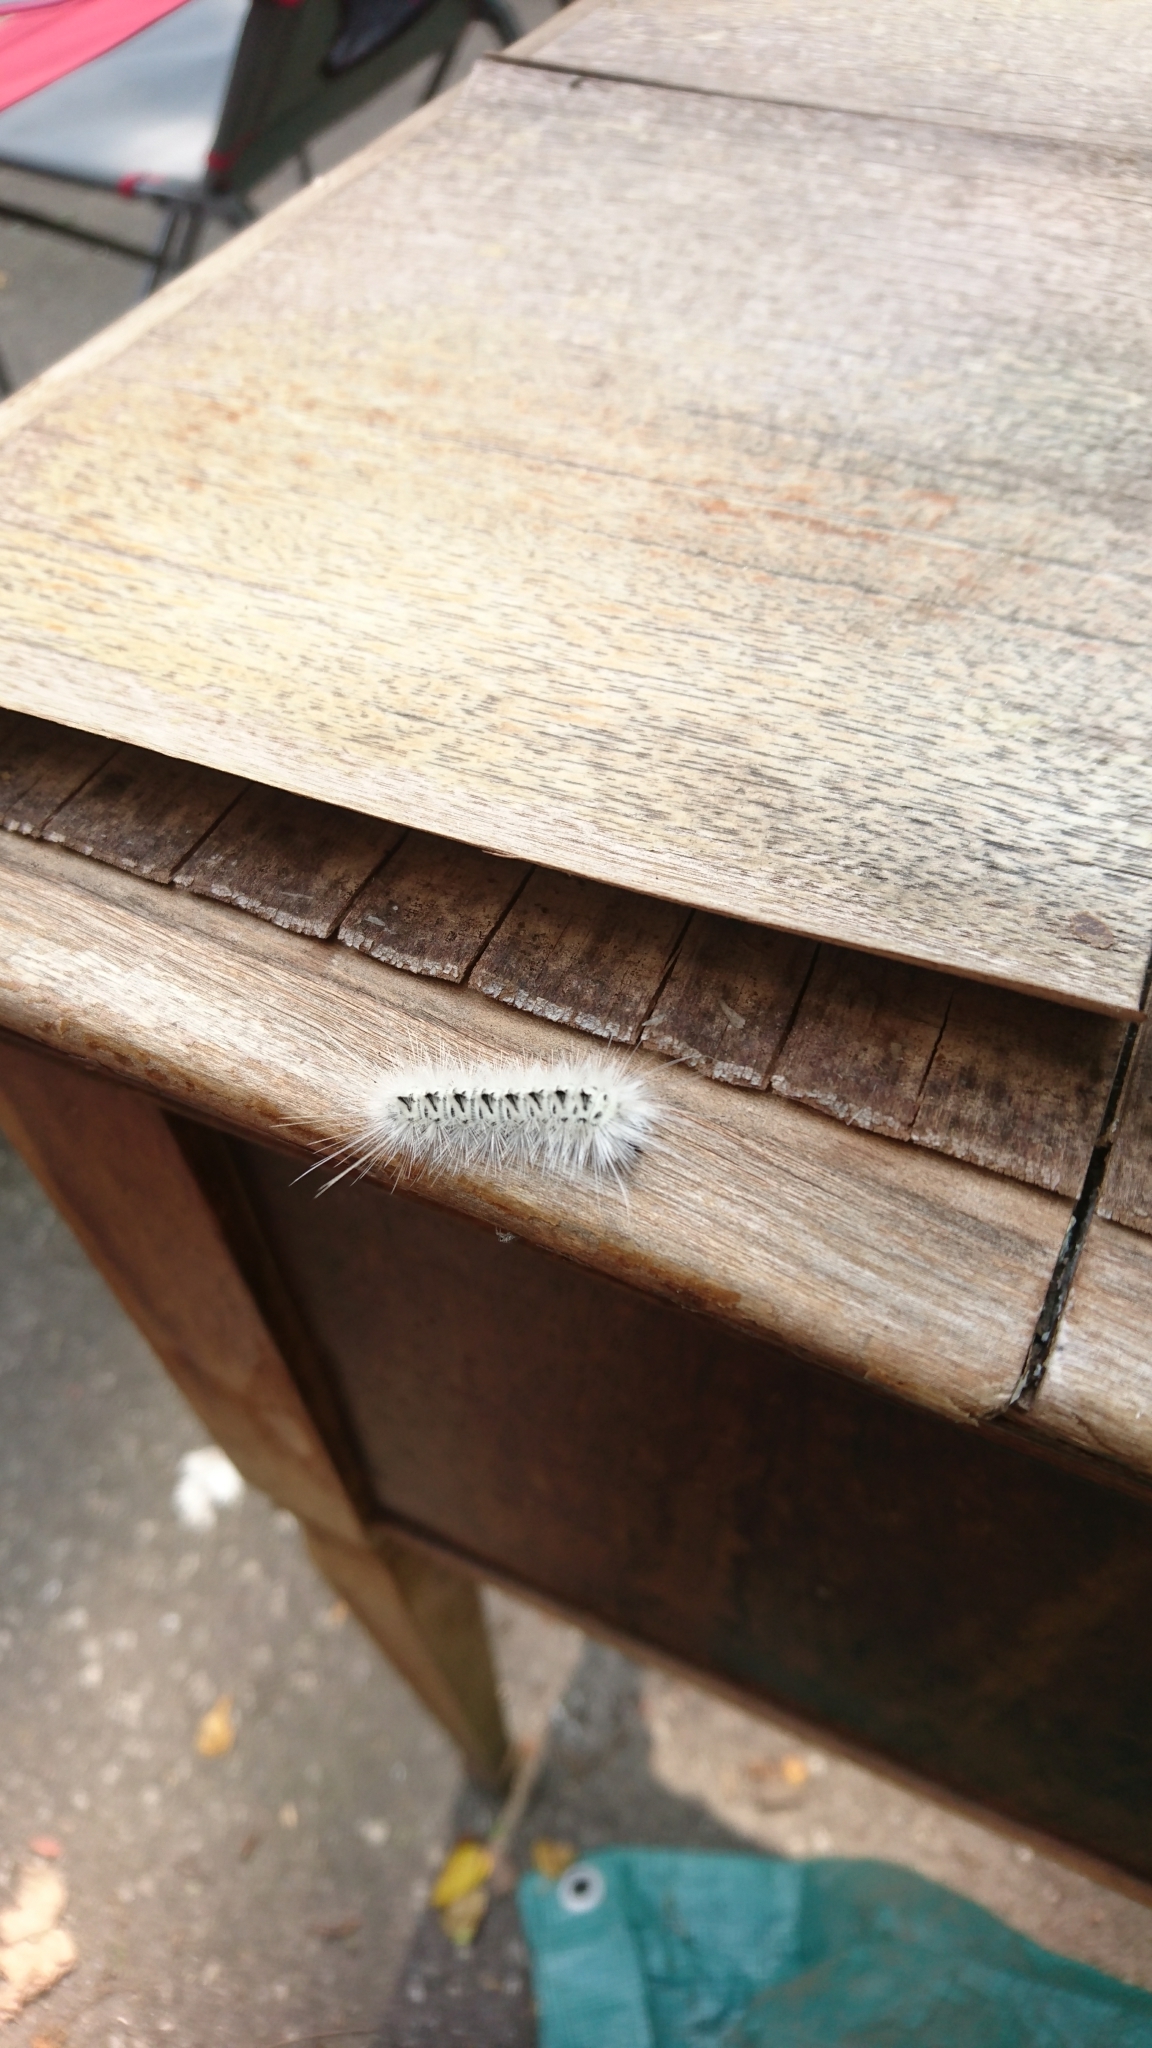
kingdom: Animalia
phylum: Arthropoda
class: Insecta
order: Lepidoptera
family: Erebidae
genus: Lophocampa
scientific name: Lophocampa caryae
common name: Hickory tussock moth
